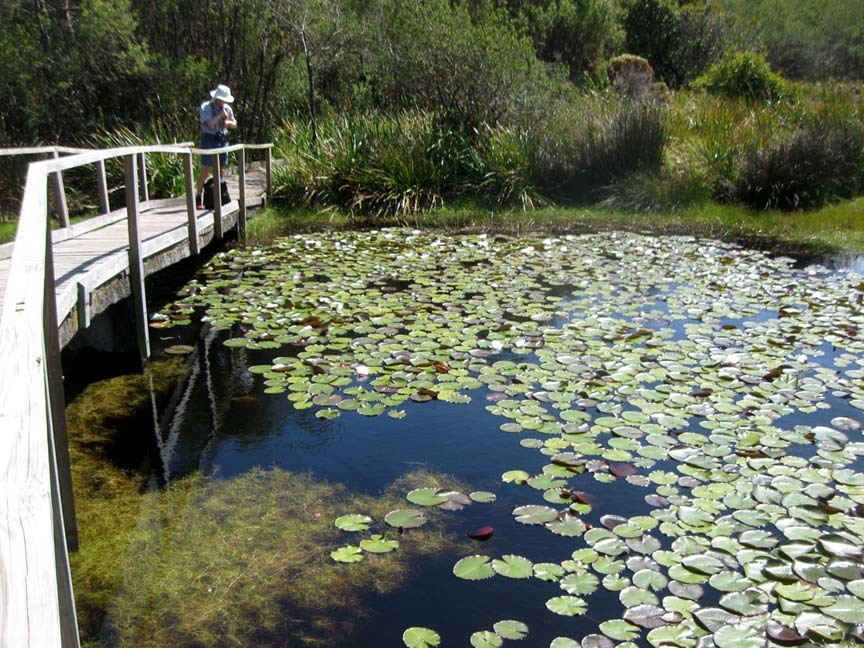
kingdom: Plantae
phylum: Tracheophyta
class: Magnoliopsida
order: Nymphaeales
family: Nymphaeaceae
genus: Nymphaea
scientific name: Nymphaea nouchali
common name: Blue lotus
